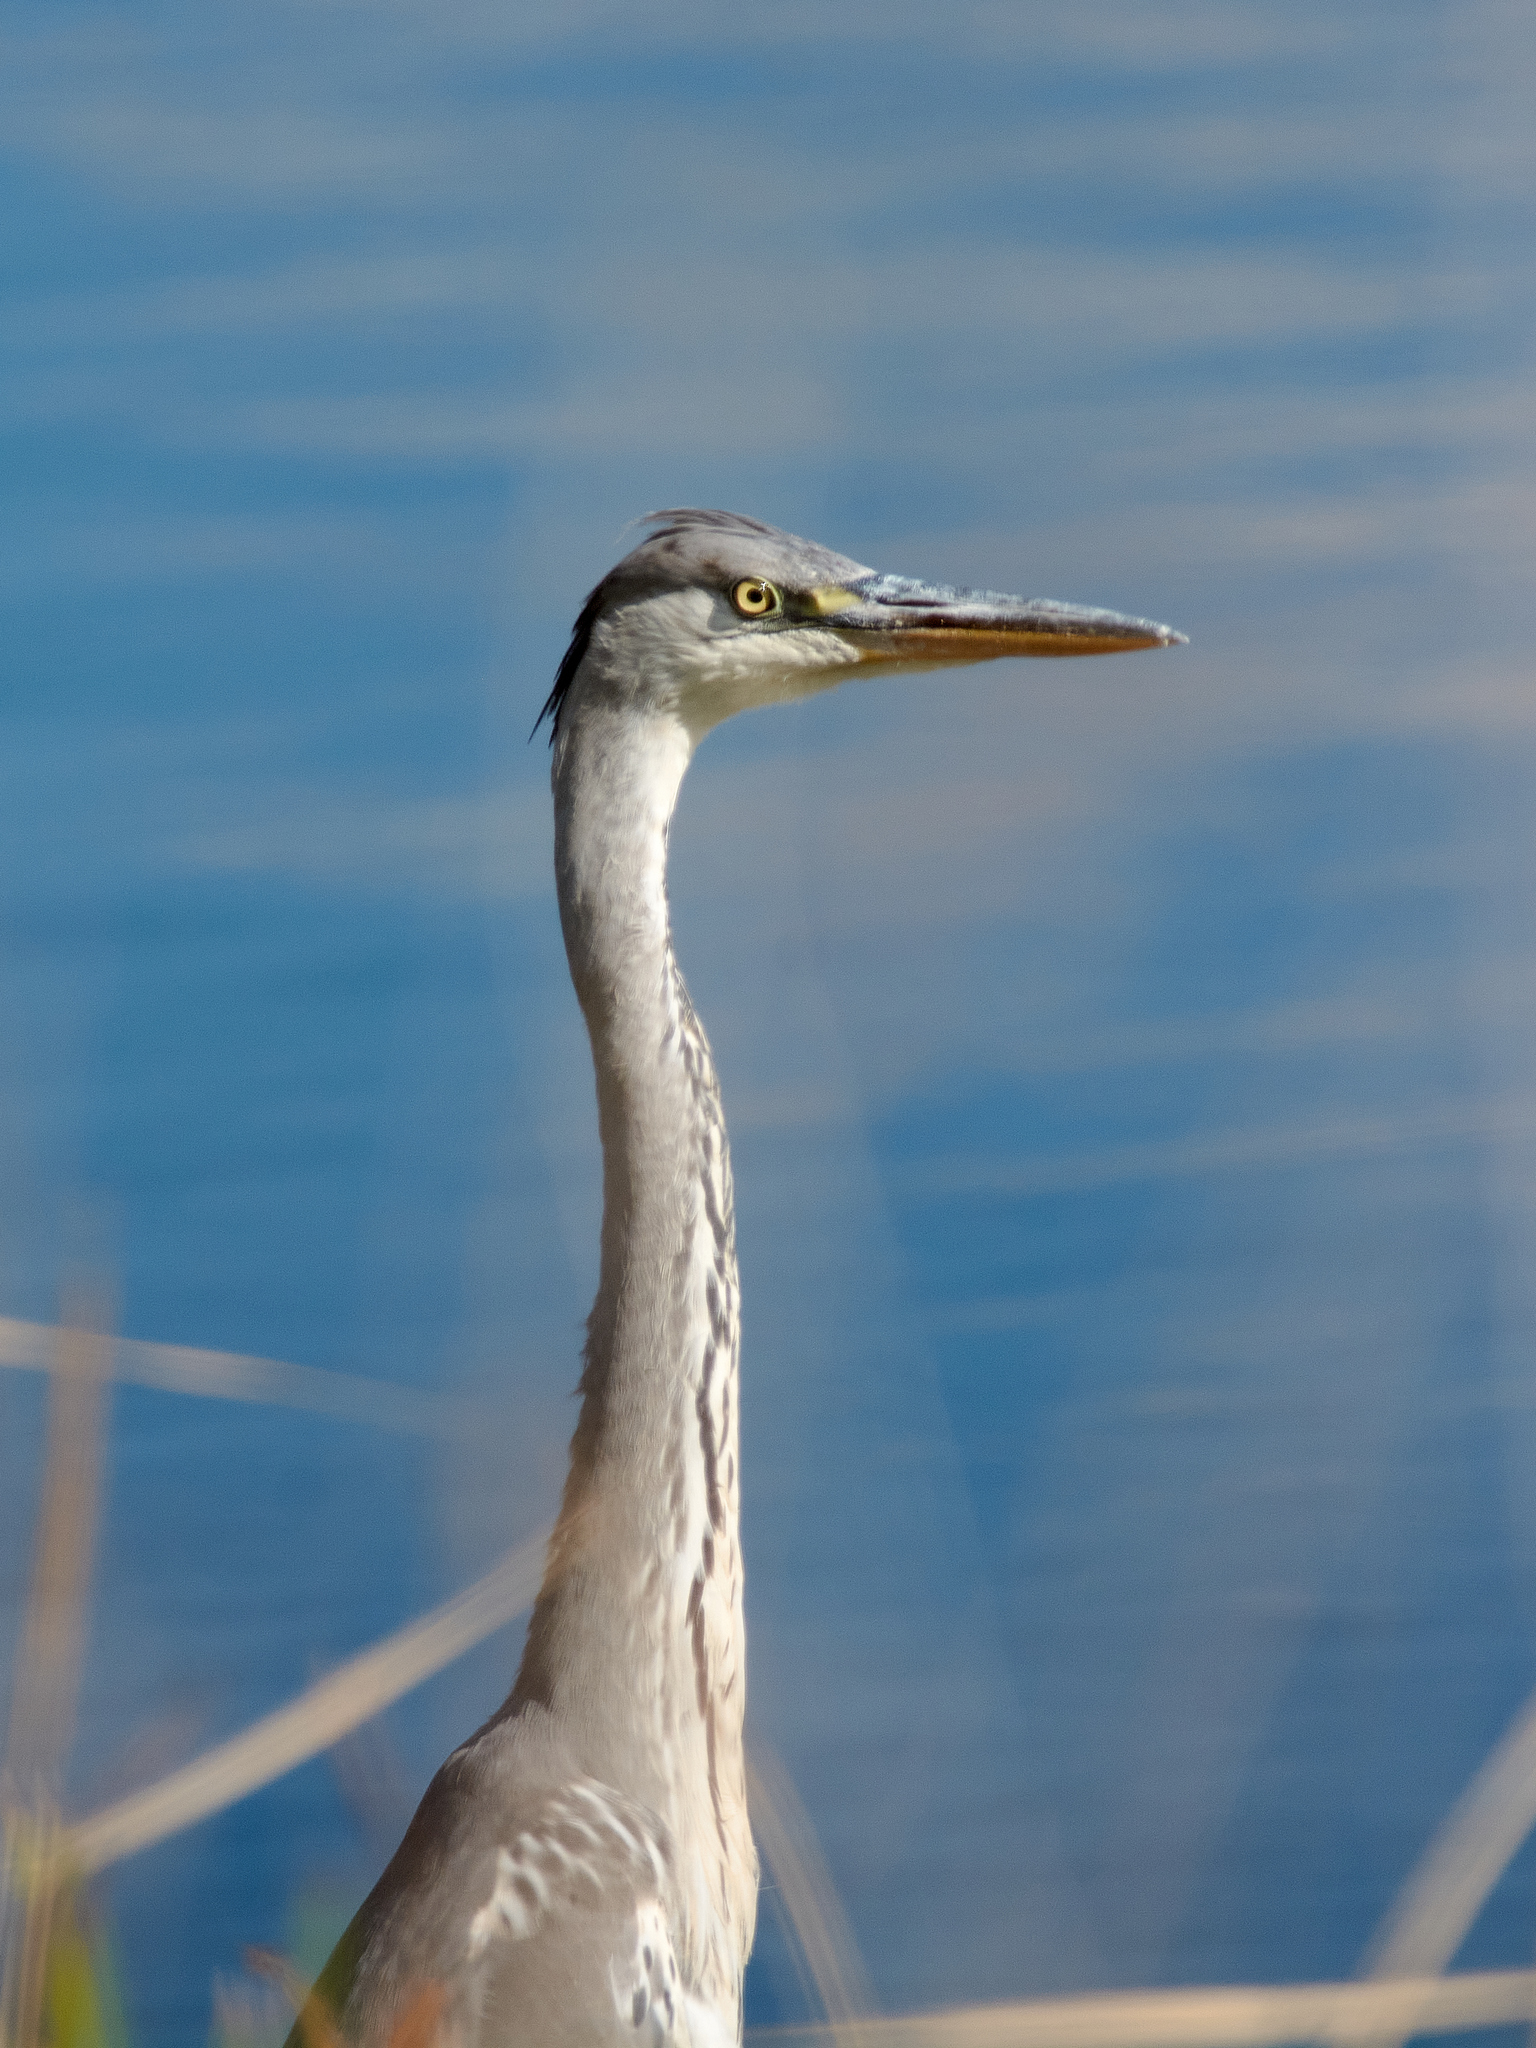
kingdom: Animalia
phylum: Chordata
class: Aves
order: Pelecaniformes
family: Ardeidae
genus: Ardea
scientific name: Ardea cinerea
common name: Grey heron
